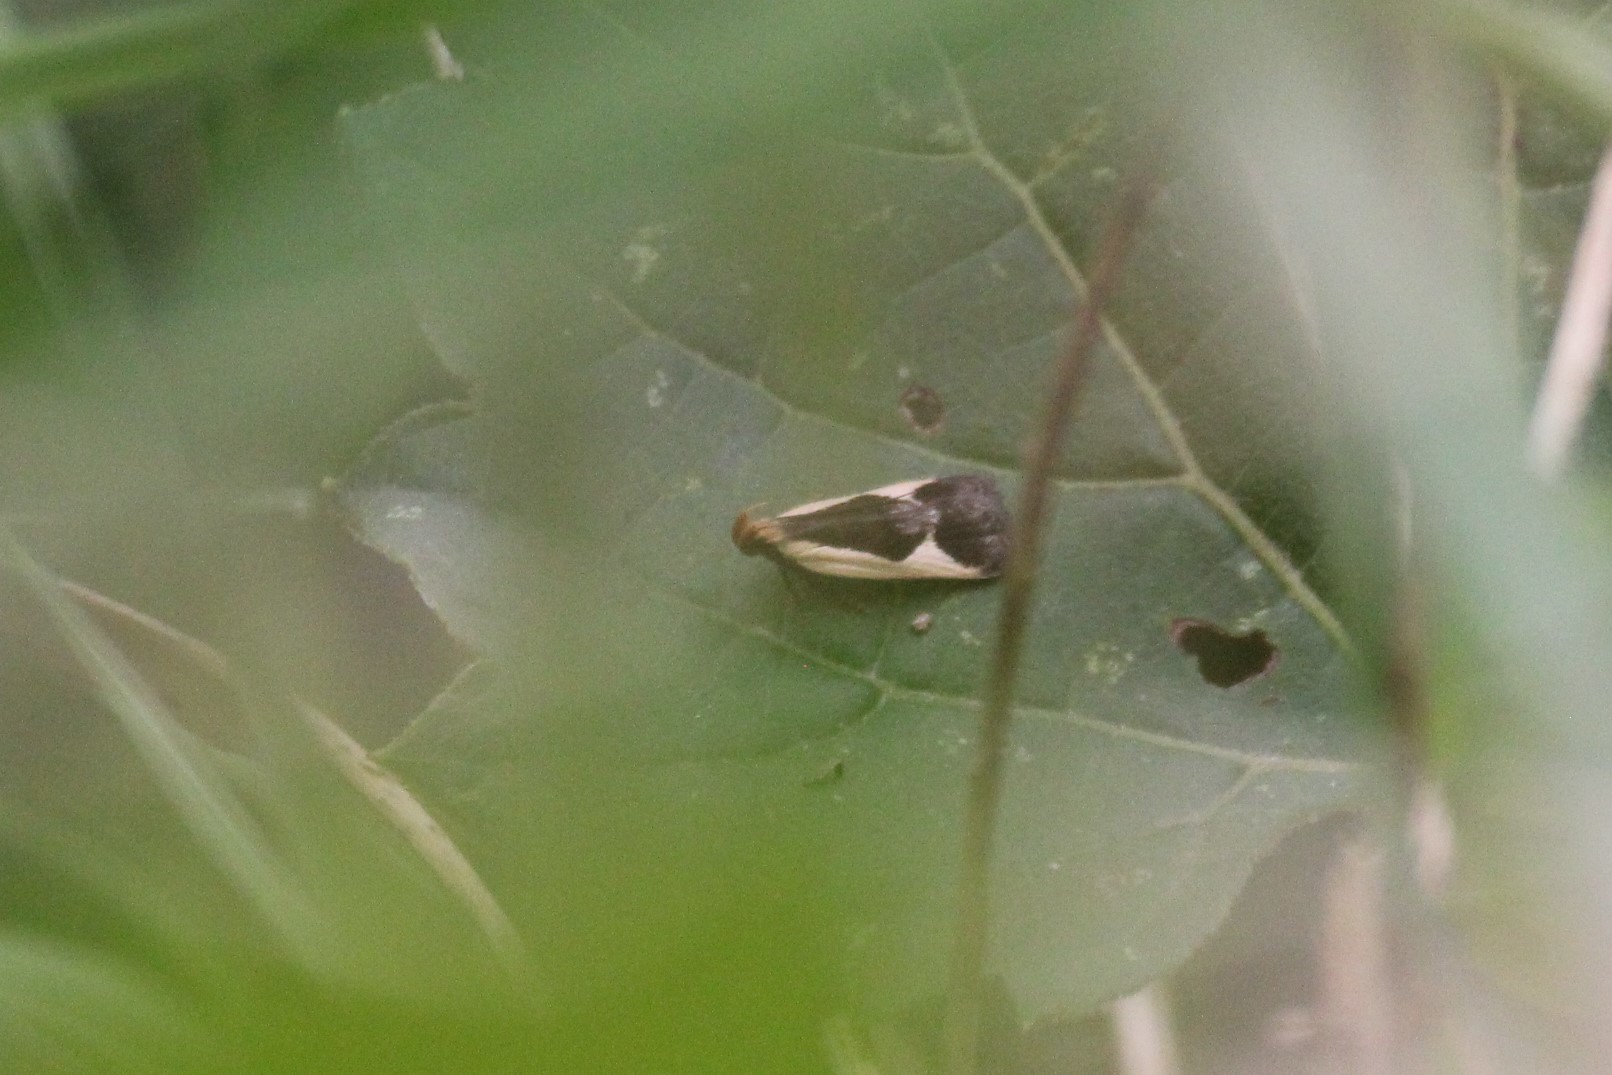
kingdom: Animalia
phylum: Arthropoda
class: Insecta
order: Lepidoptera
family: Gelechiidae
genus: Dichomeris
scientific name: Dichomeris flavocostella
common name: Cream-edged dichomeris moth
